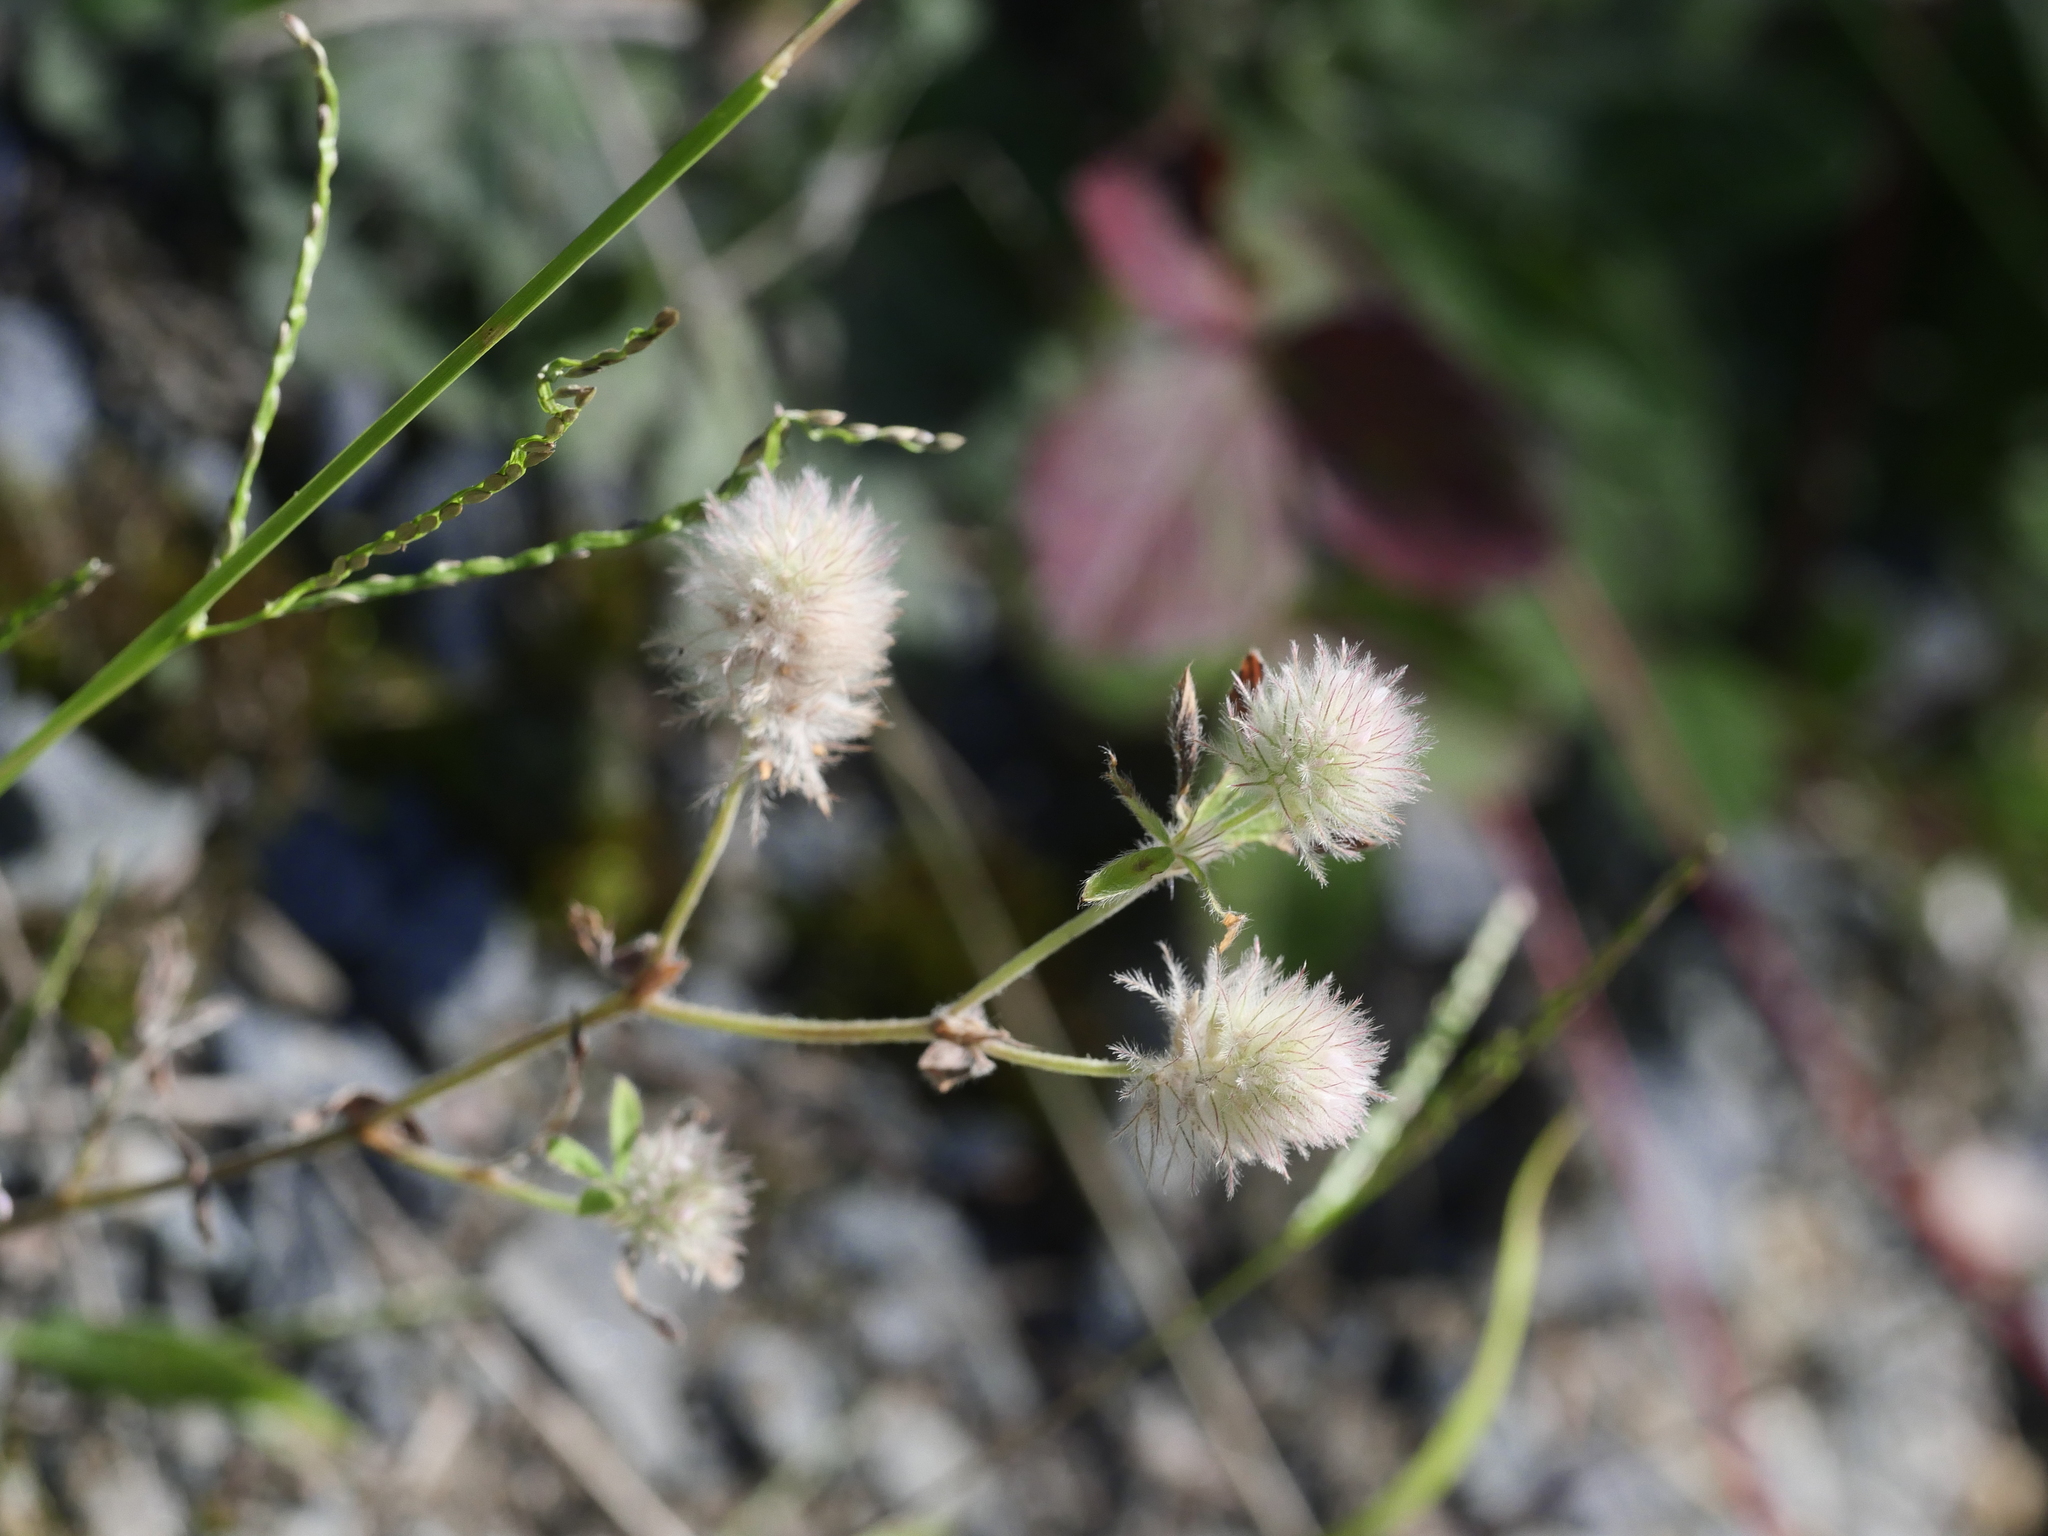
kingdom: Plantae
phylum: Tracheophyta
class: Magnoliopsida
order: Fabales
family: Fabaceae
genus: Trifolium
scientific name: Trifolium arvense
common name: Hare's-foot clover
